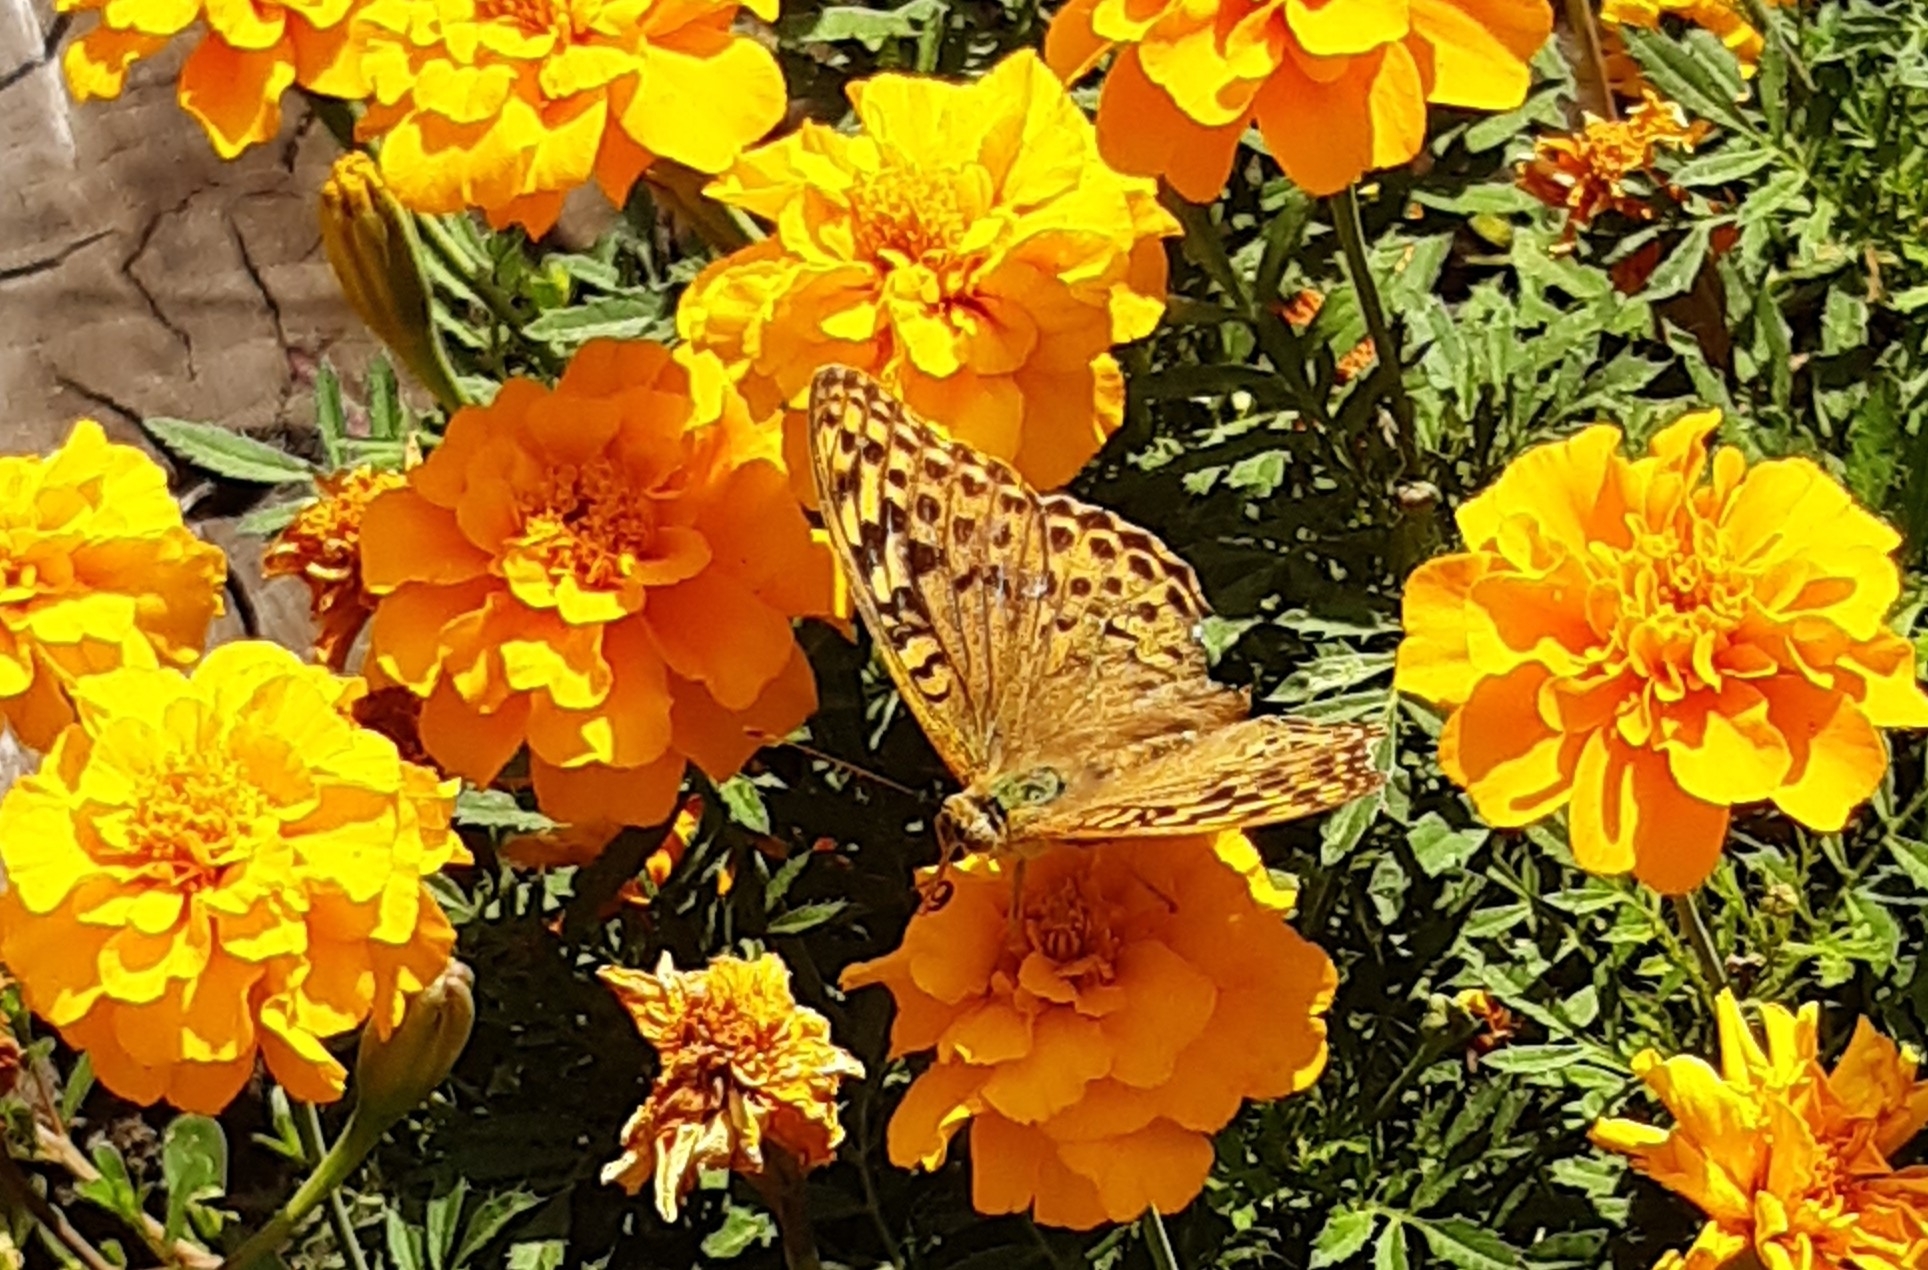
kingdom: Animalia
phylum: Arthropoda
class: Insecta
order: Lepidoptera
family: Nymphalidae
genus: Damora
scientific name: Damora pandora
